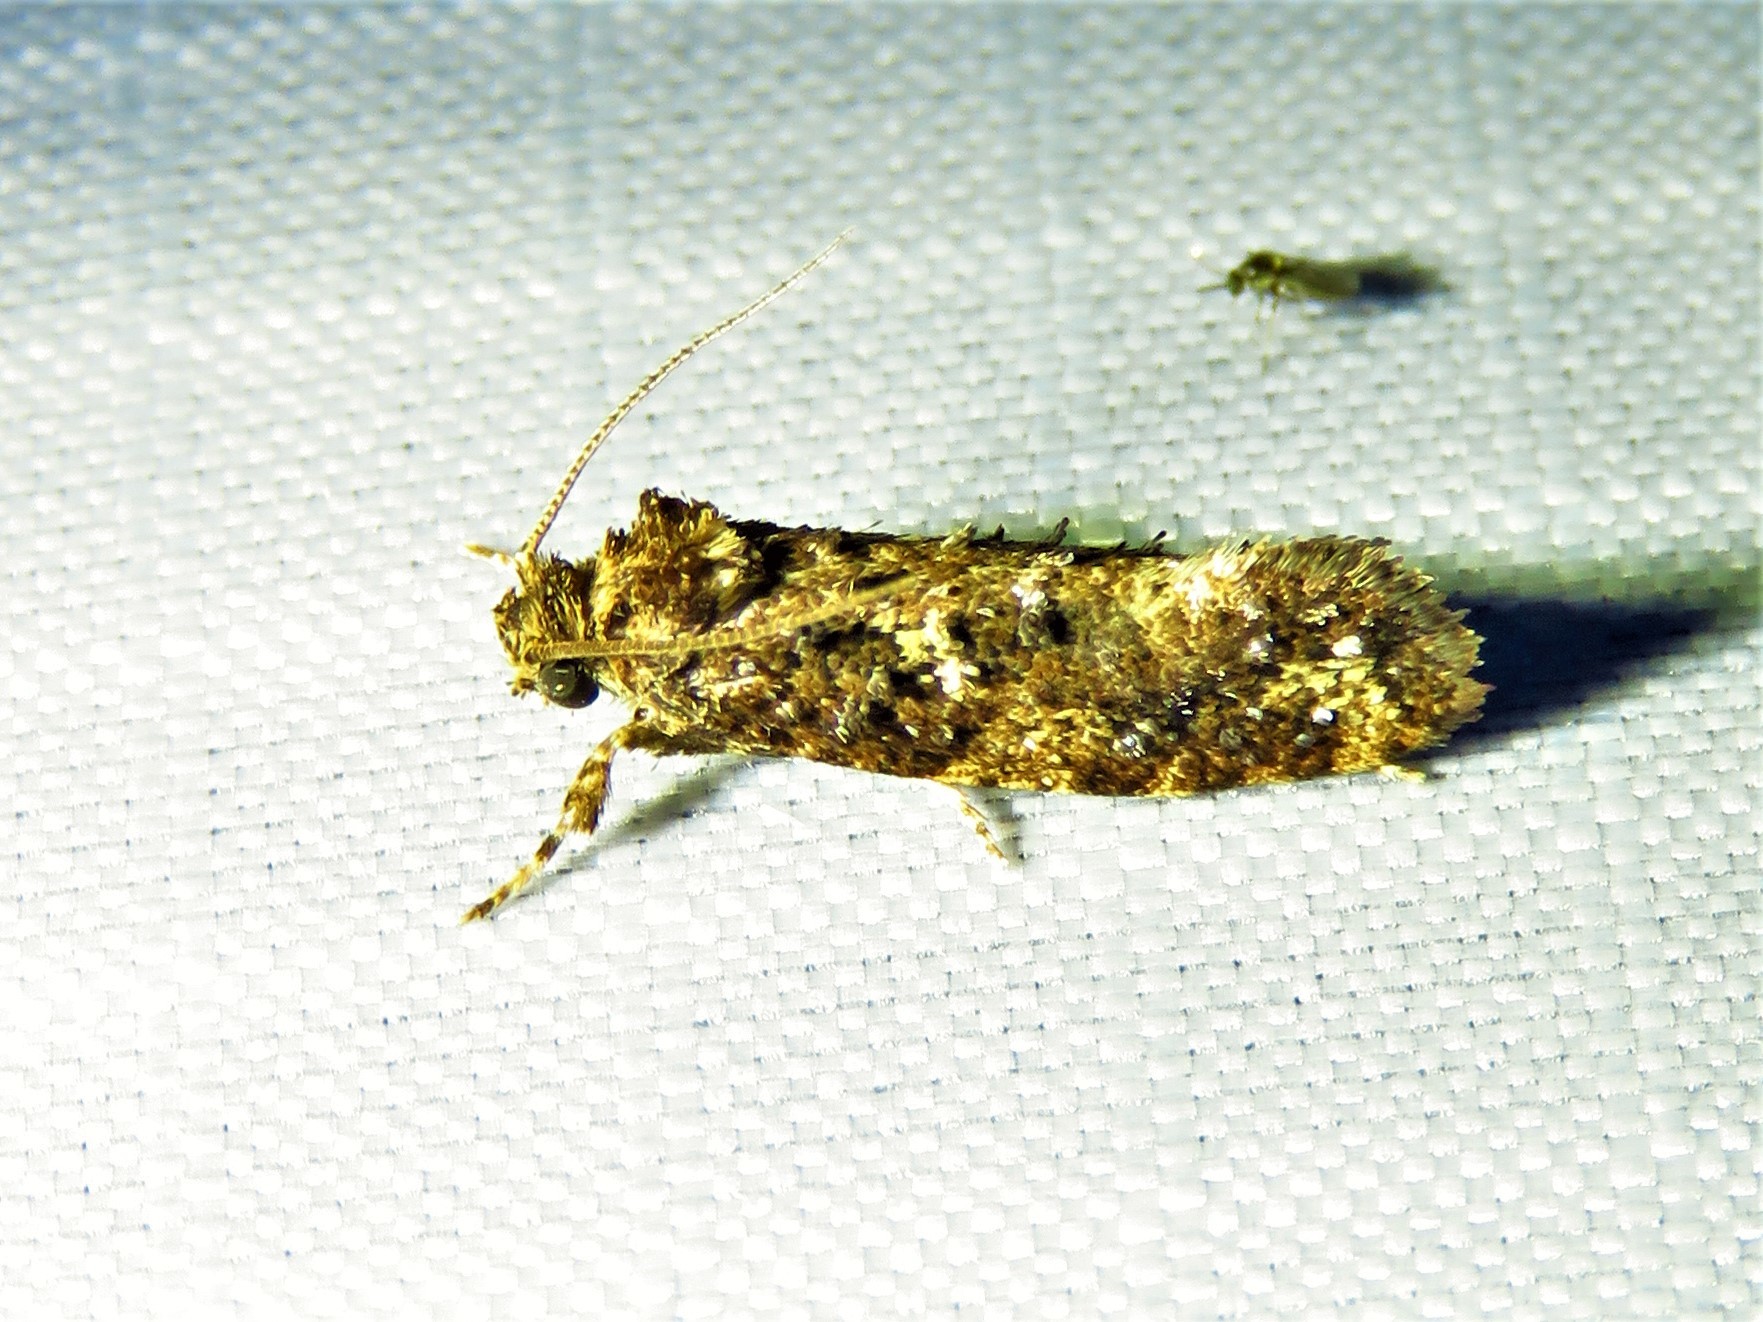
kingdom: Animalia
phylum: Arthropoda
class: Insecta
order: Lepidoptera
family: Tineidae
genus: Acrolophus
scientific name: Acrolophus cressoni
